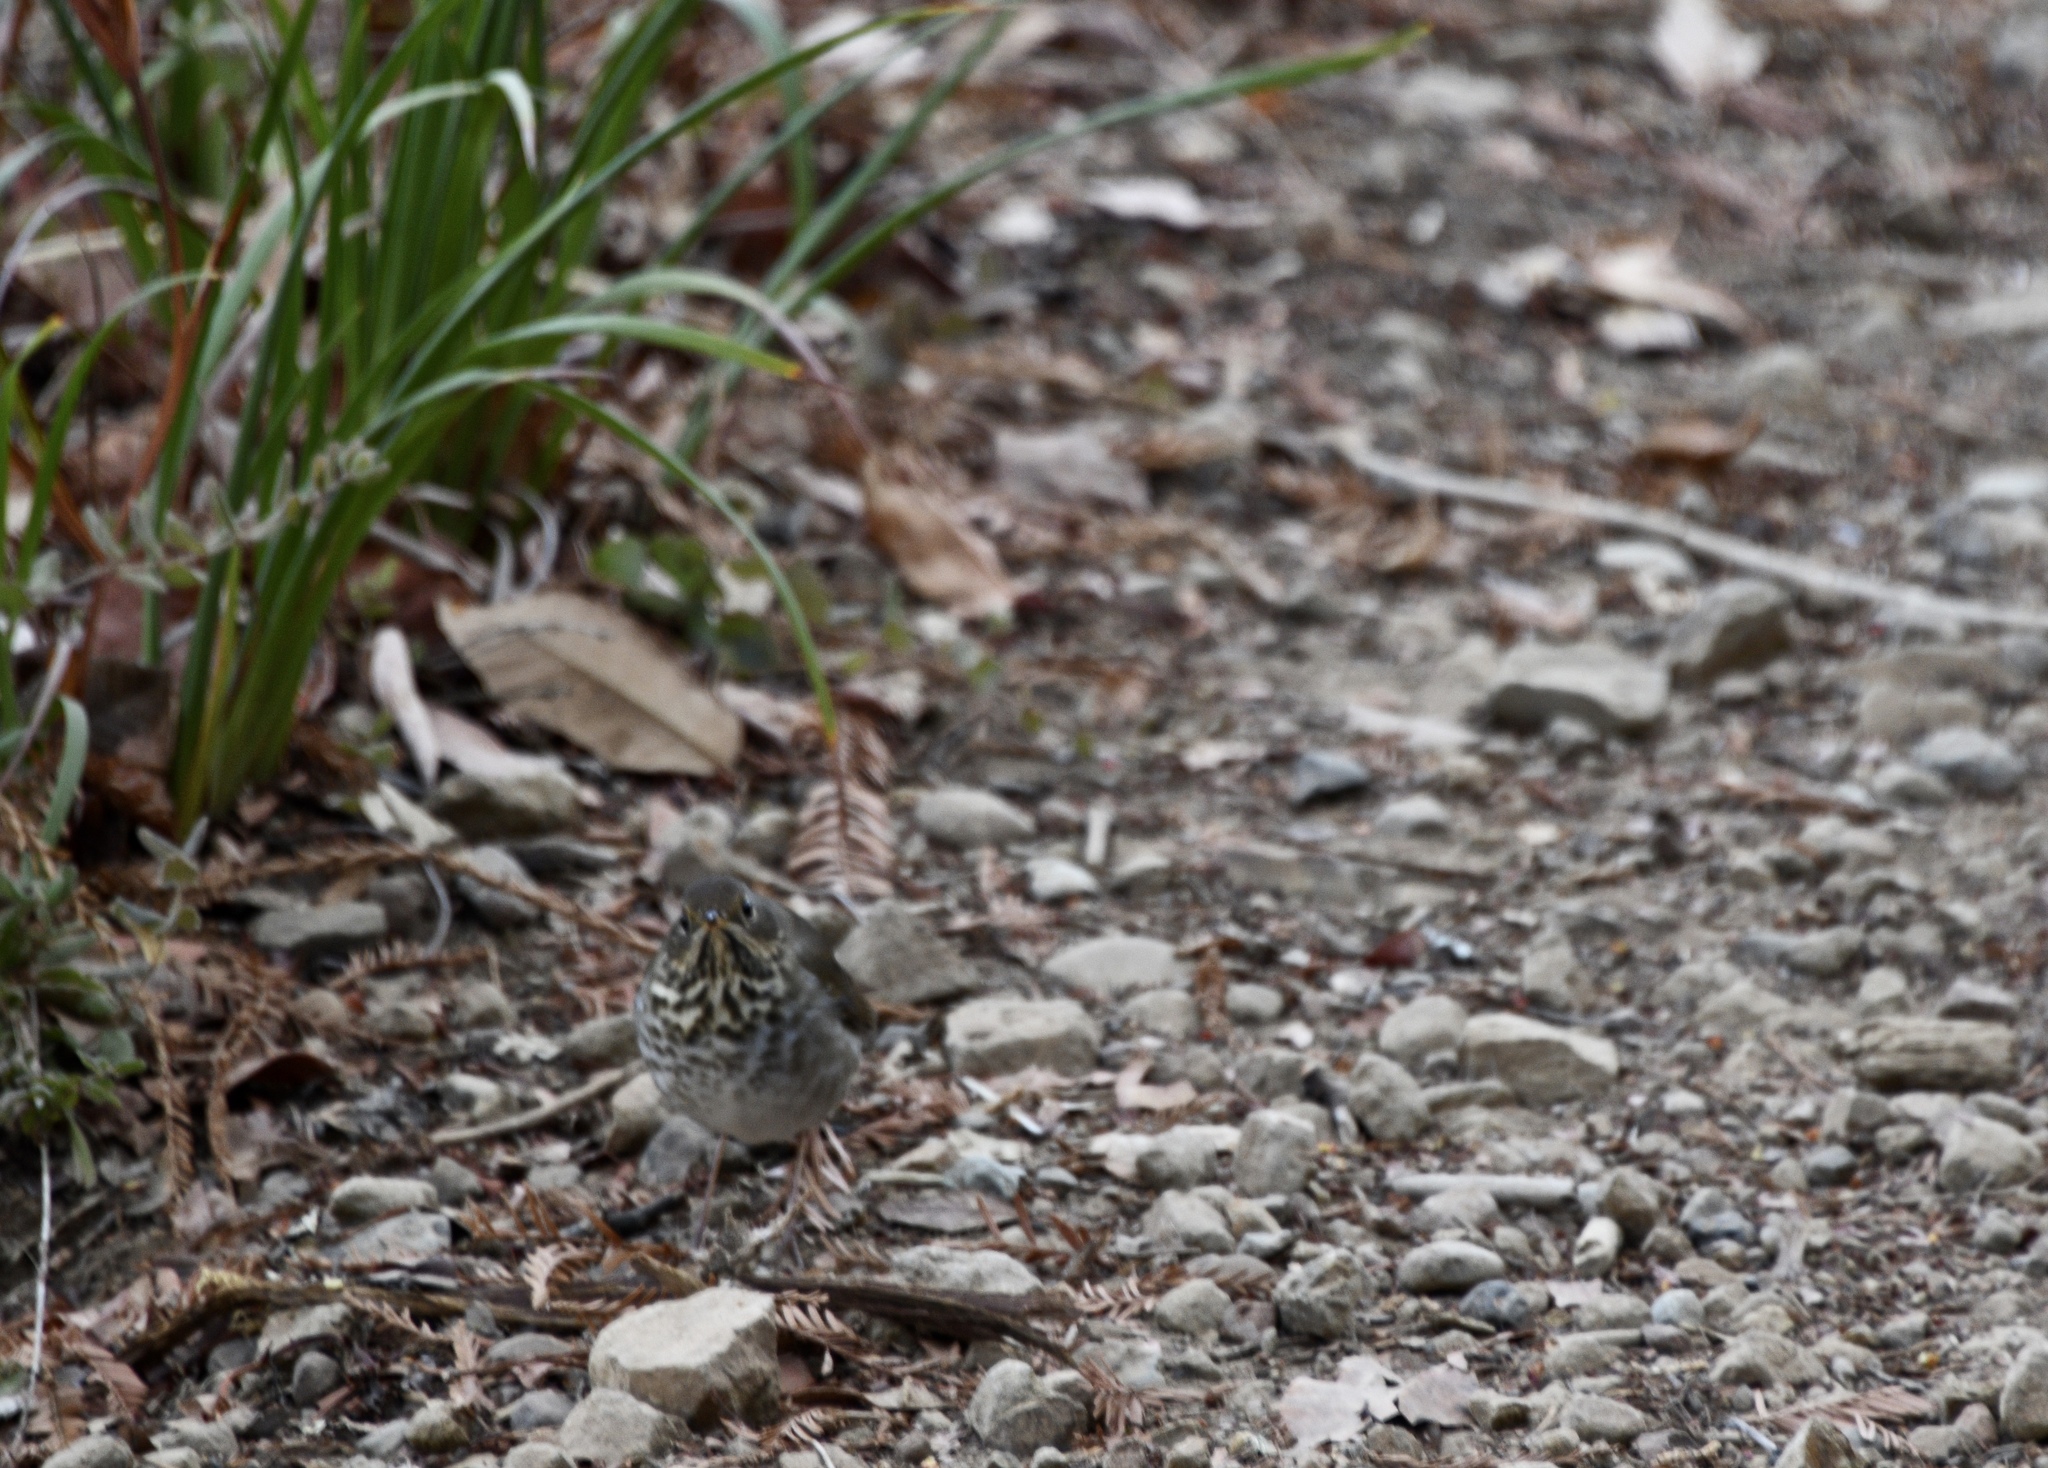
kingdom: Animalia
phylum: Chordata
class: Aves
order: Passeriformes
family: Turdidae
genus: Catharus
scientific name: Catharus guttatus
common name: Hermit thrush
